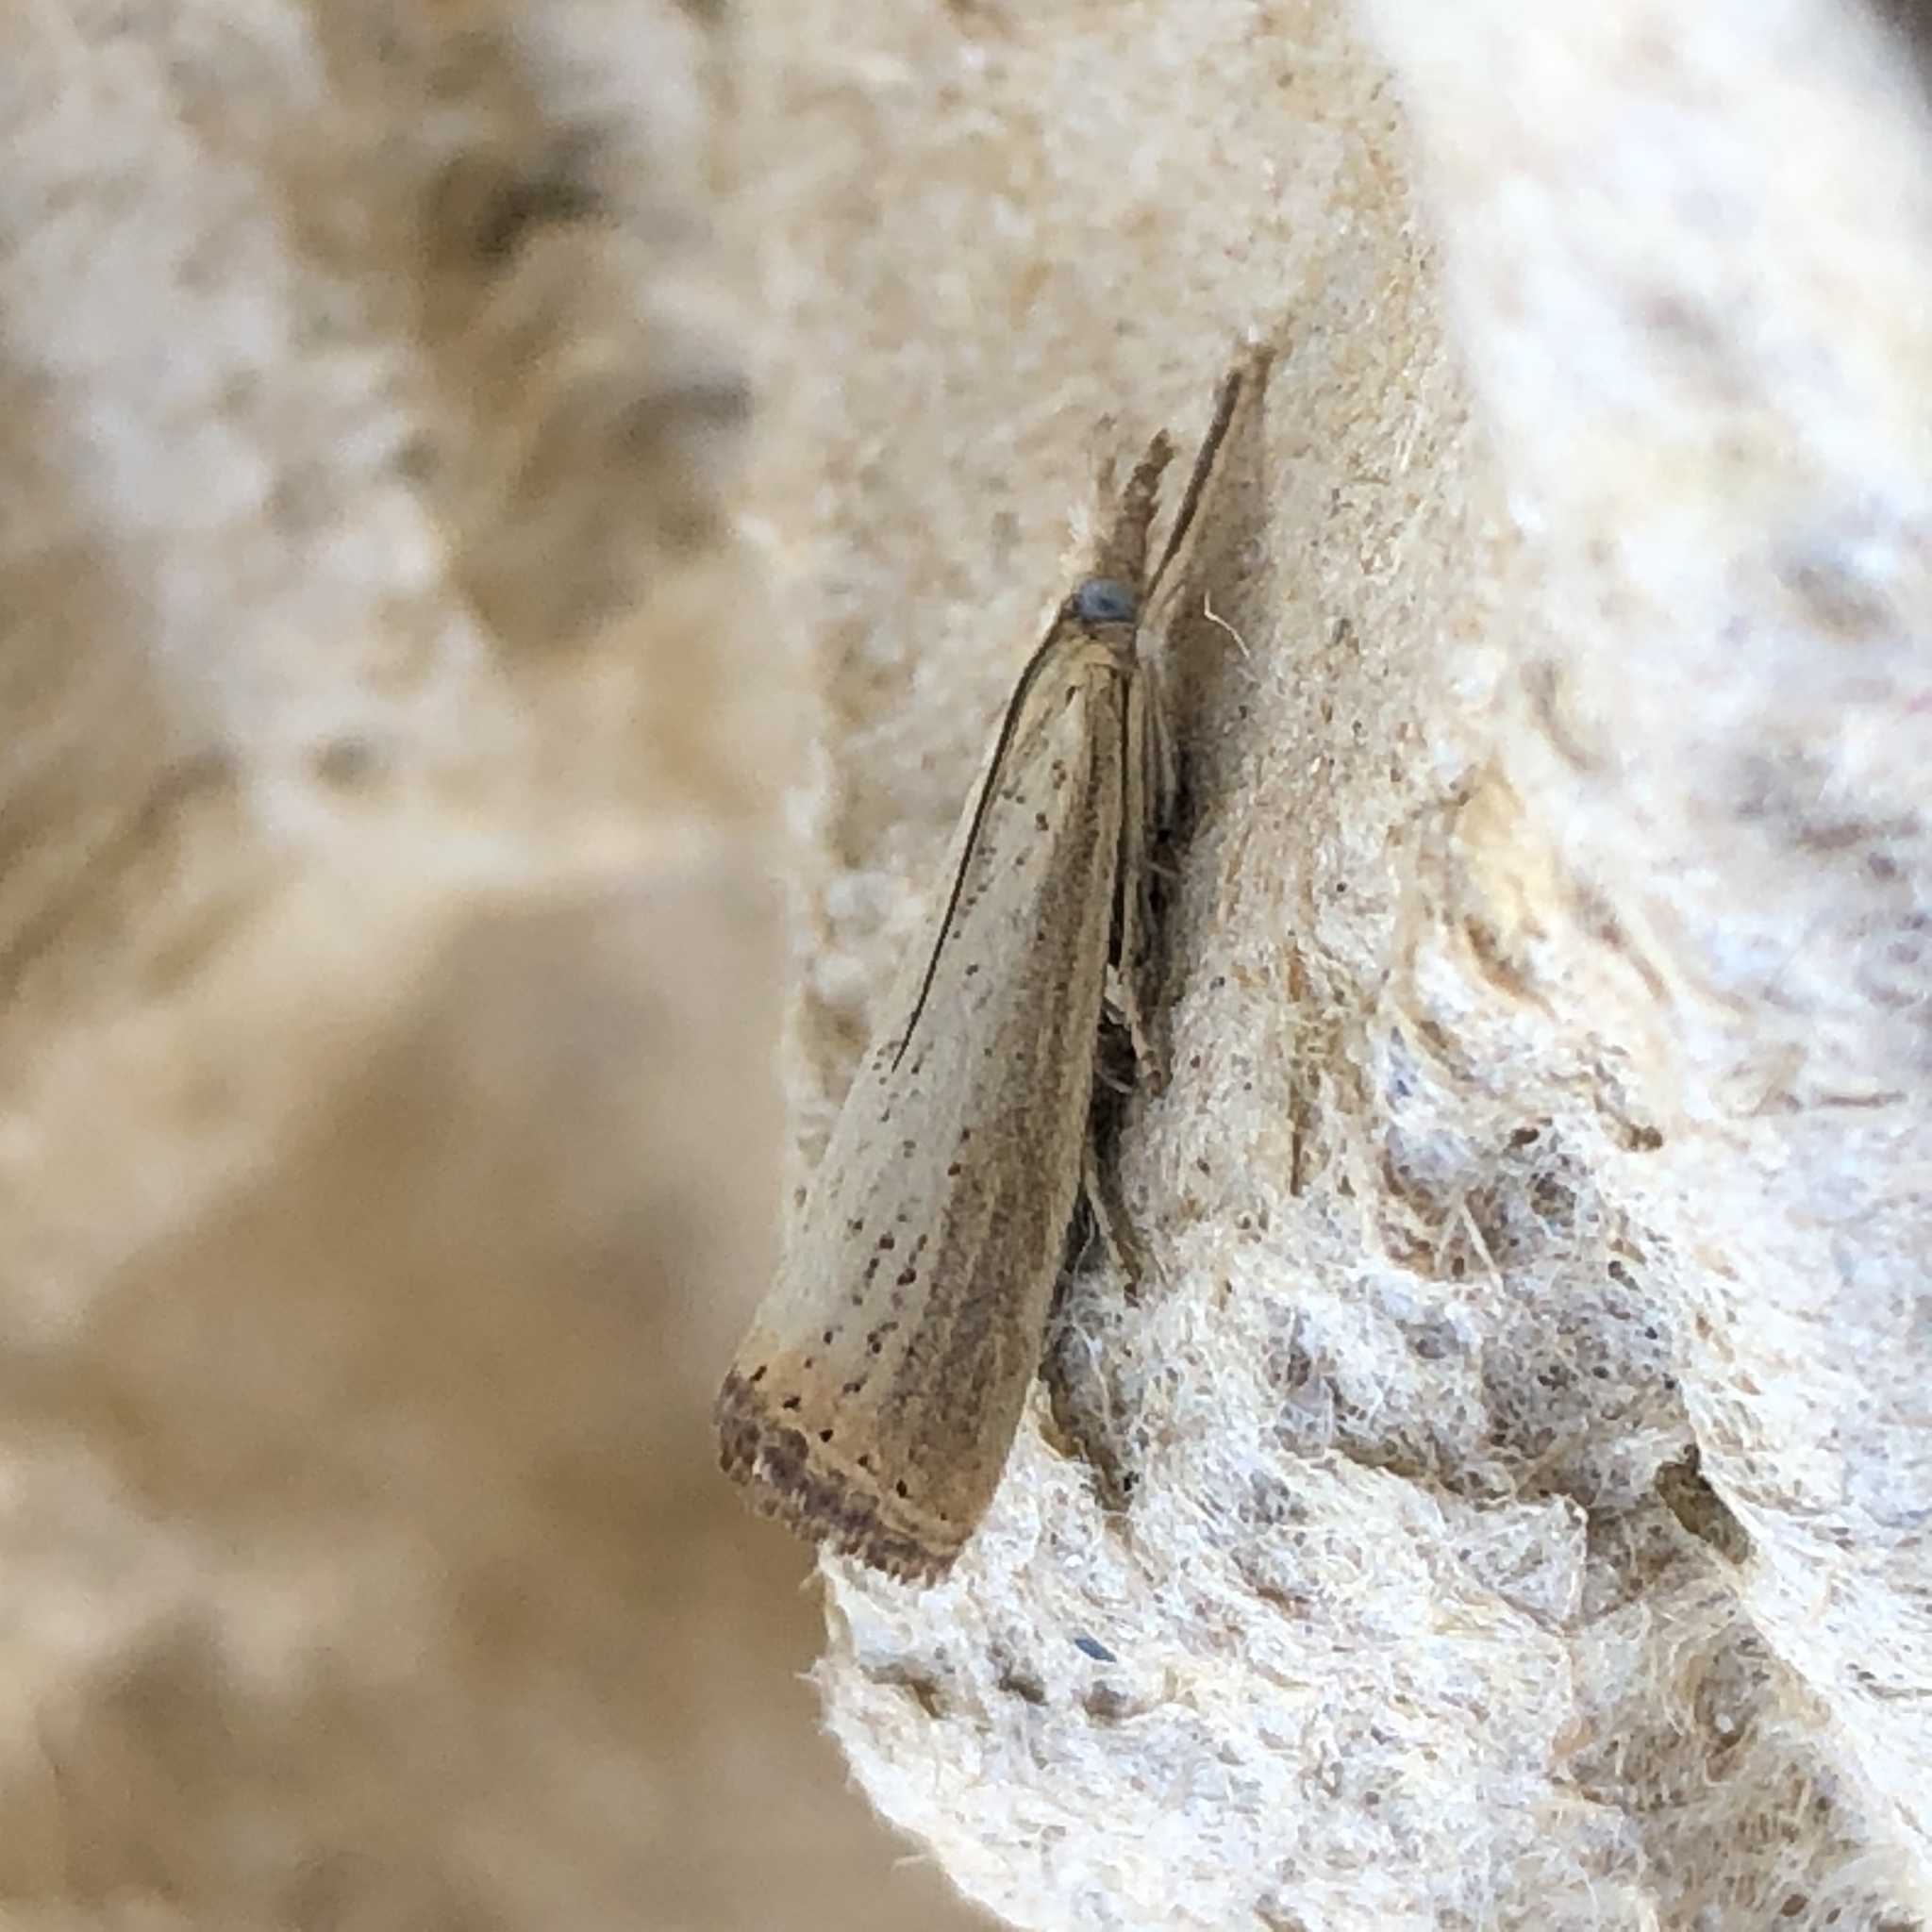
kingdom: Animalia
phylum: Arthropoda
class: Insecta
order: Lepidoptera
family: Crambidae
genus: Agriphila
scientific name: Agriphila straminella
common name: Straw grass-veneer
